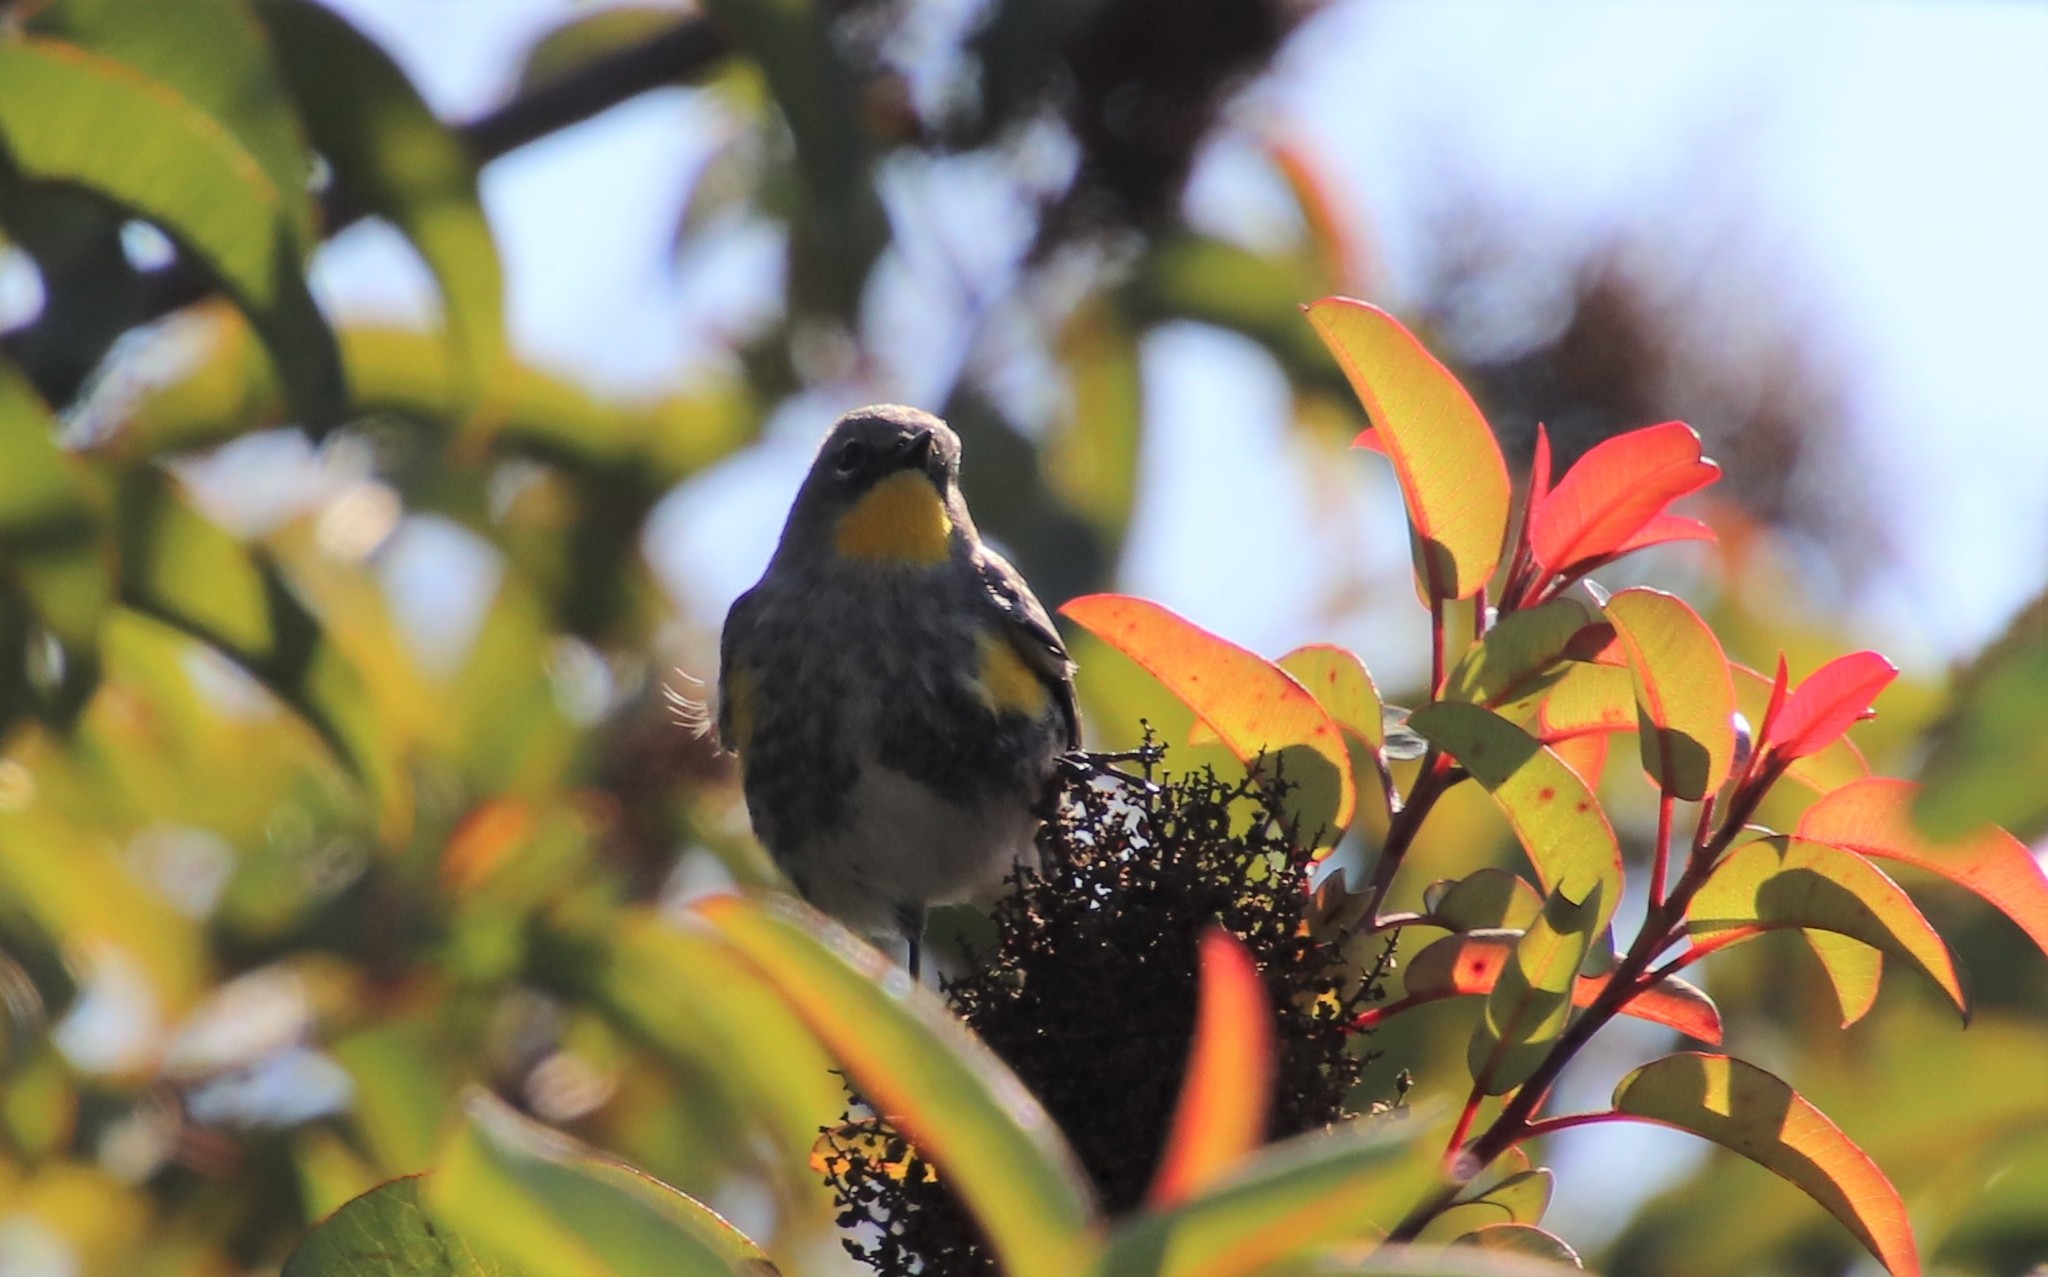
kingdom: Animalia
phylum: Chordata
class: Aves
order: Passeriformes
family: Parulidae
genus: Setophaga
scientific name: Setophaga auduboni
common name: Audubon's warbler
